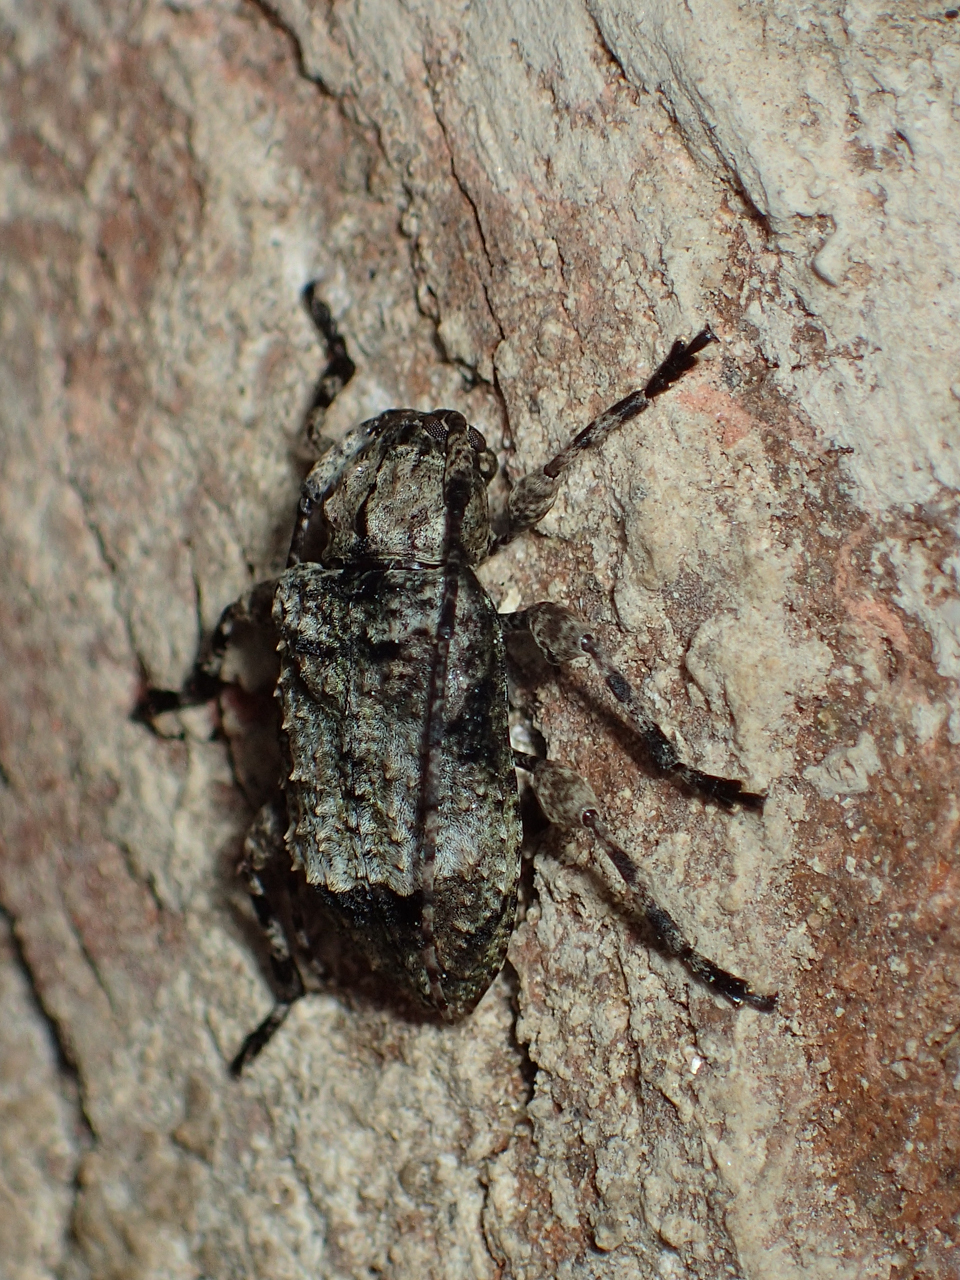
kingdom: Animalia
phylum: Arthropoda
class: Insecta
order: Coleoptera
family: Cerambycidae
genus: Leptostylus
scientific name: Leptostylus transversus
